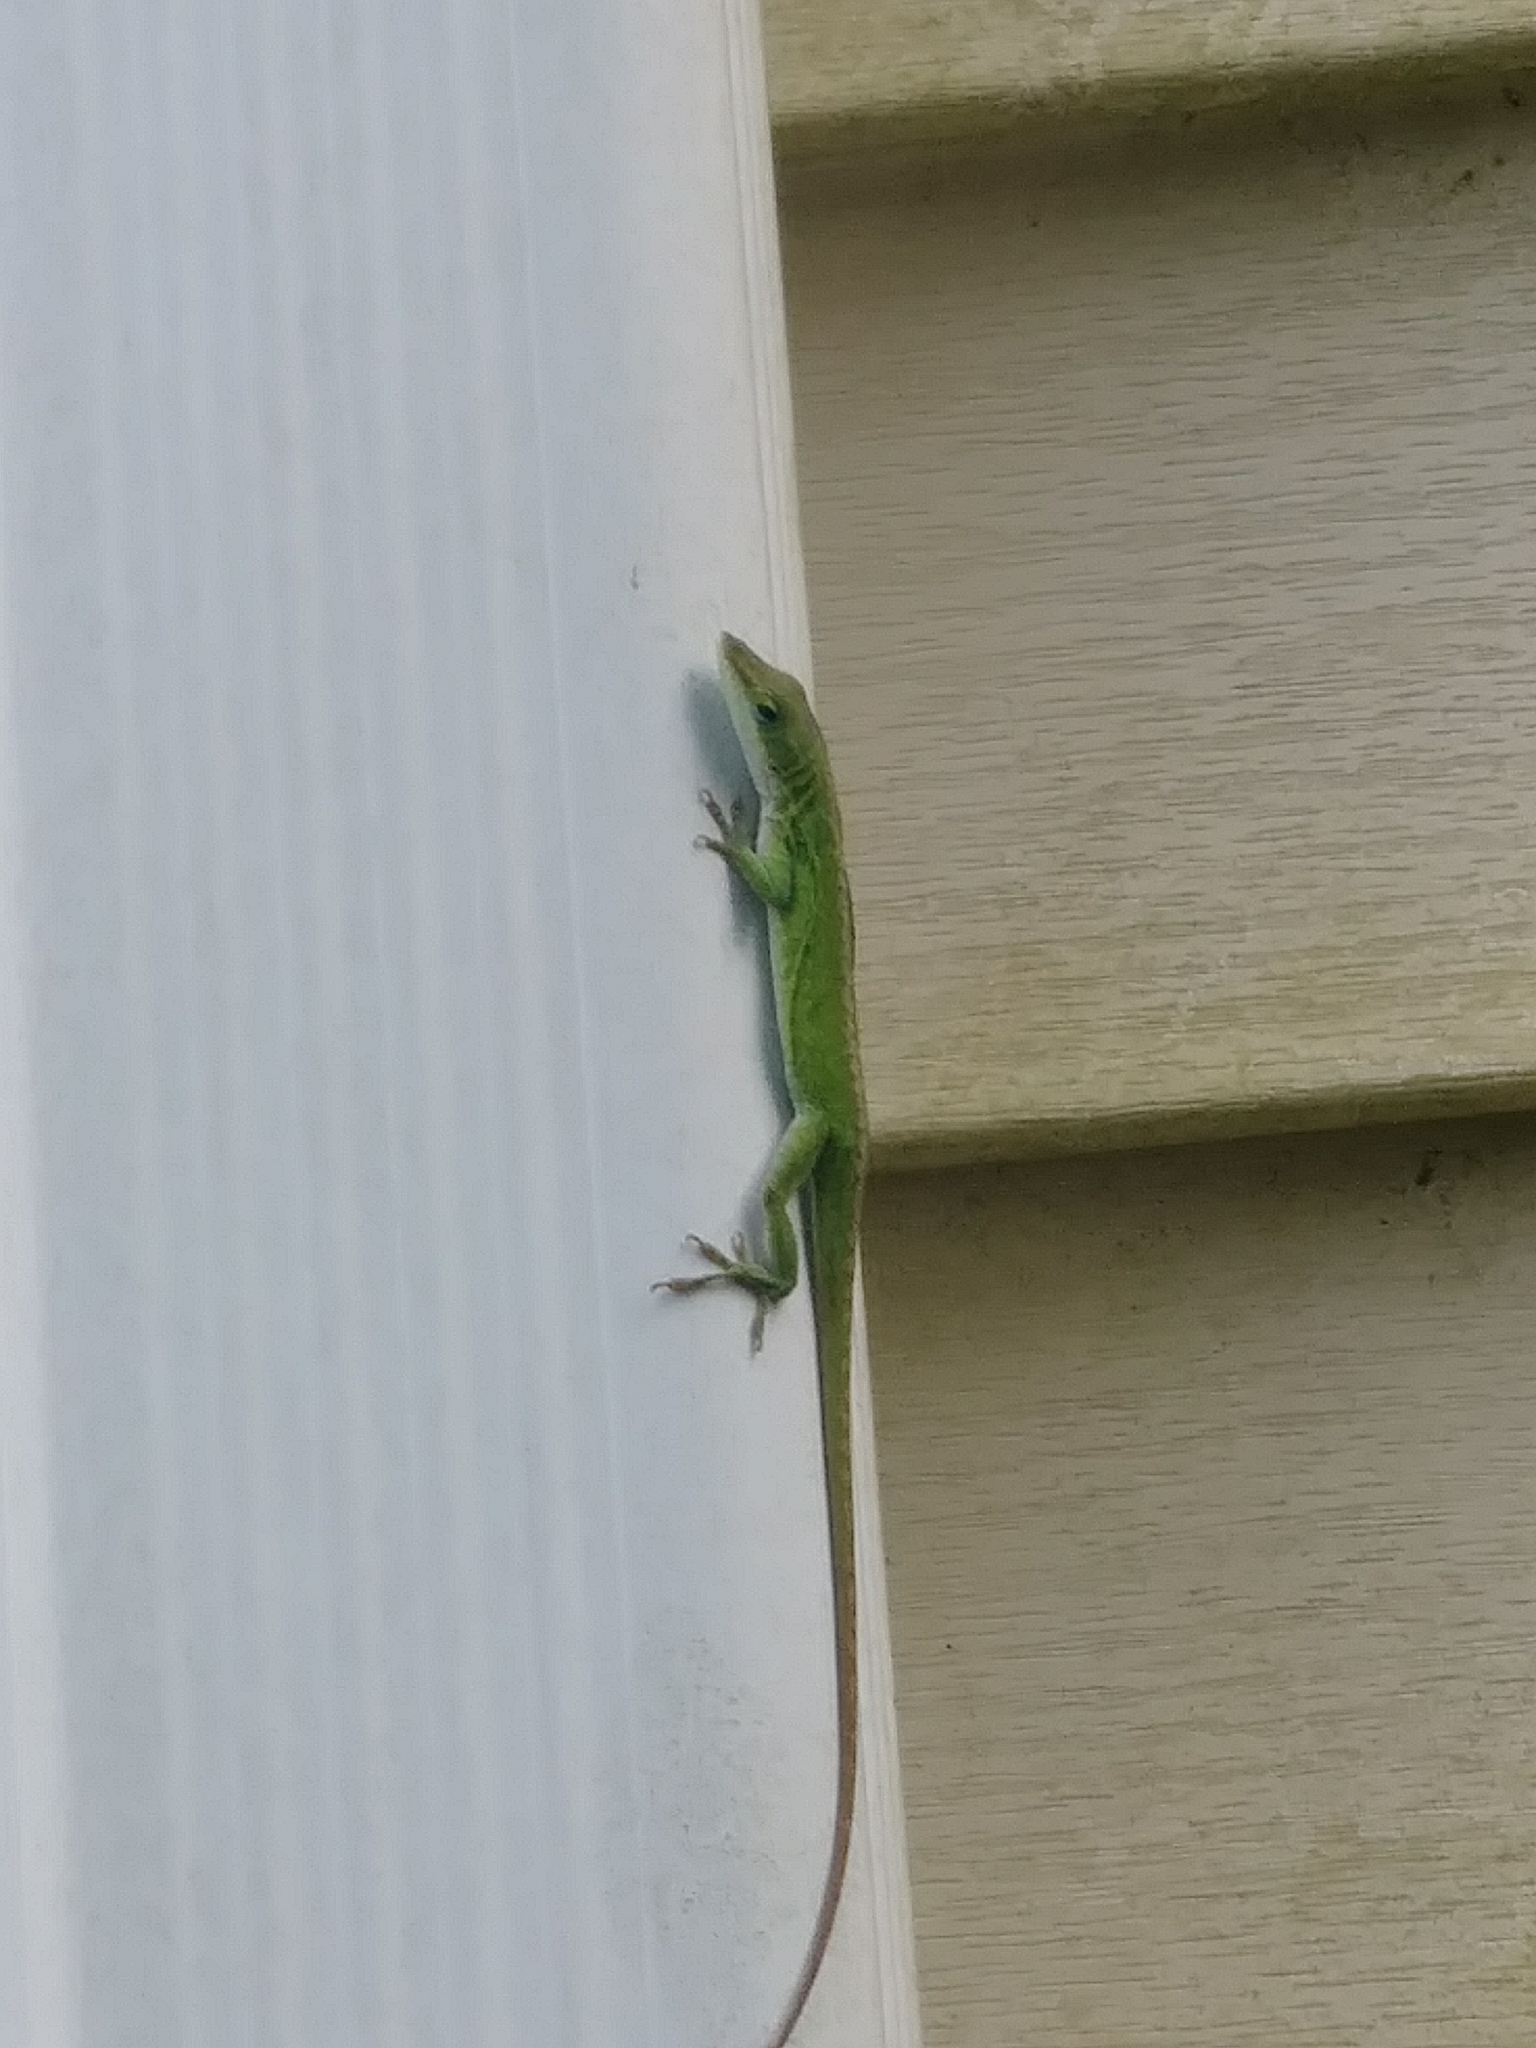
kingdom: Animalia
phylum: Chordata
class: Squamata
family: Dactyloidae
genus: Anolis
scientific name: Anolis carolinensis
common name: Green anole
